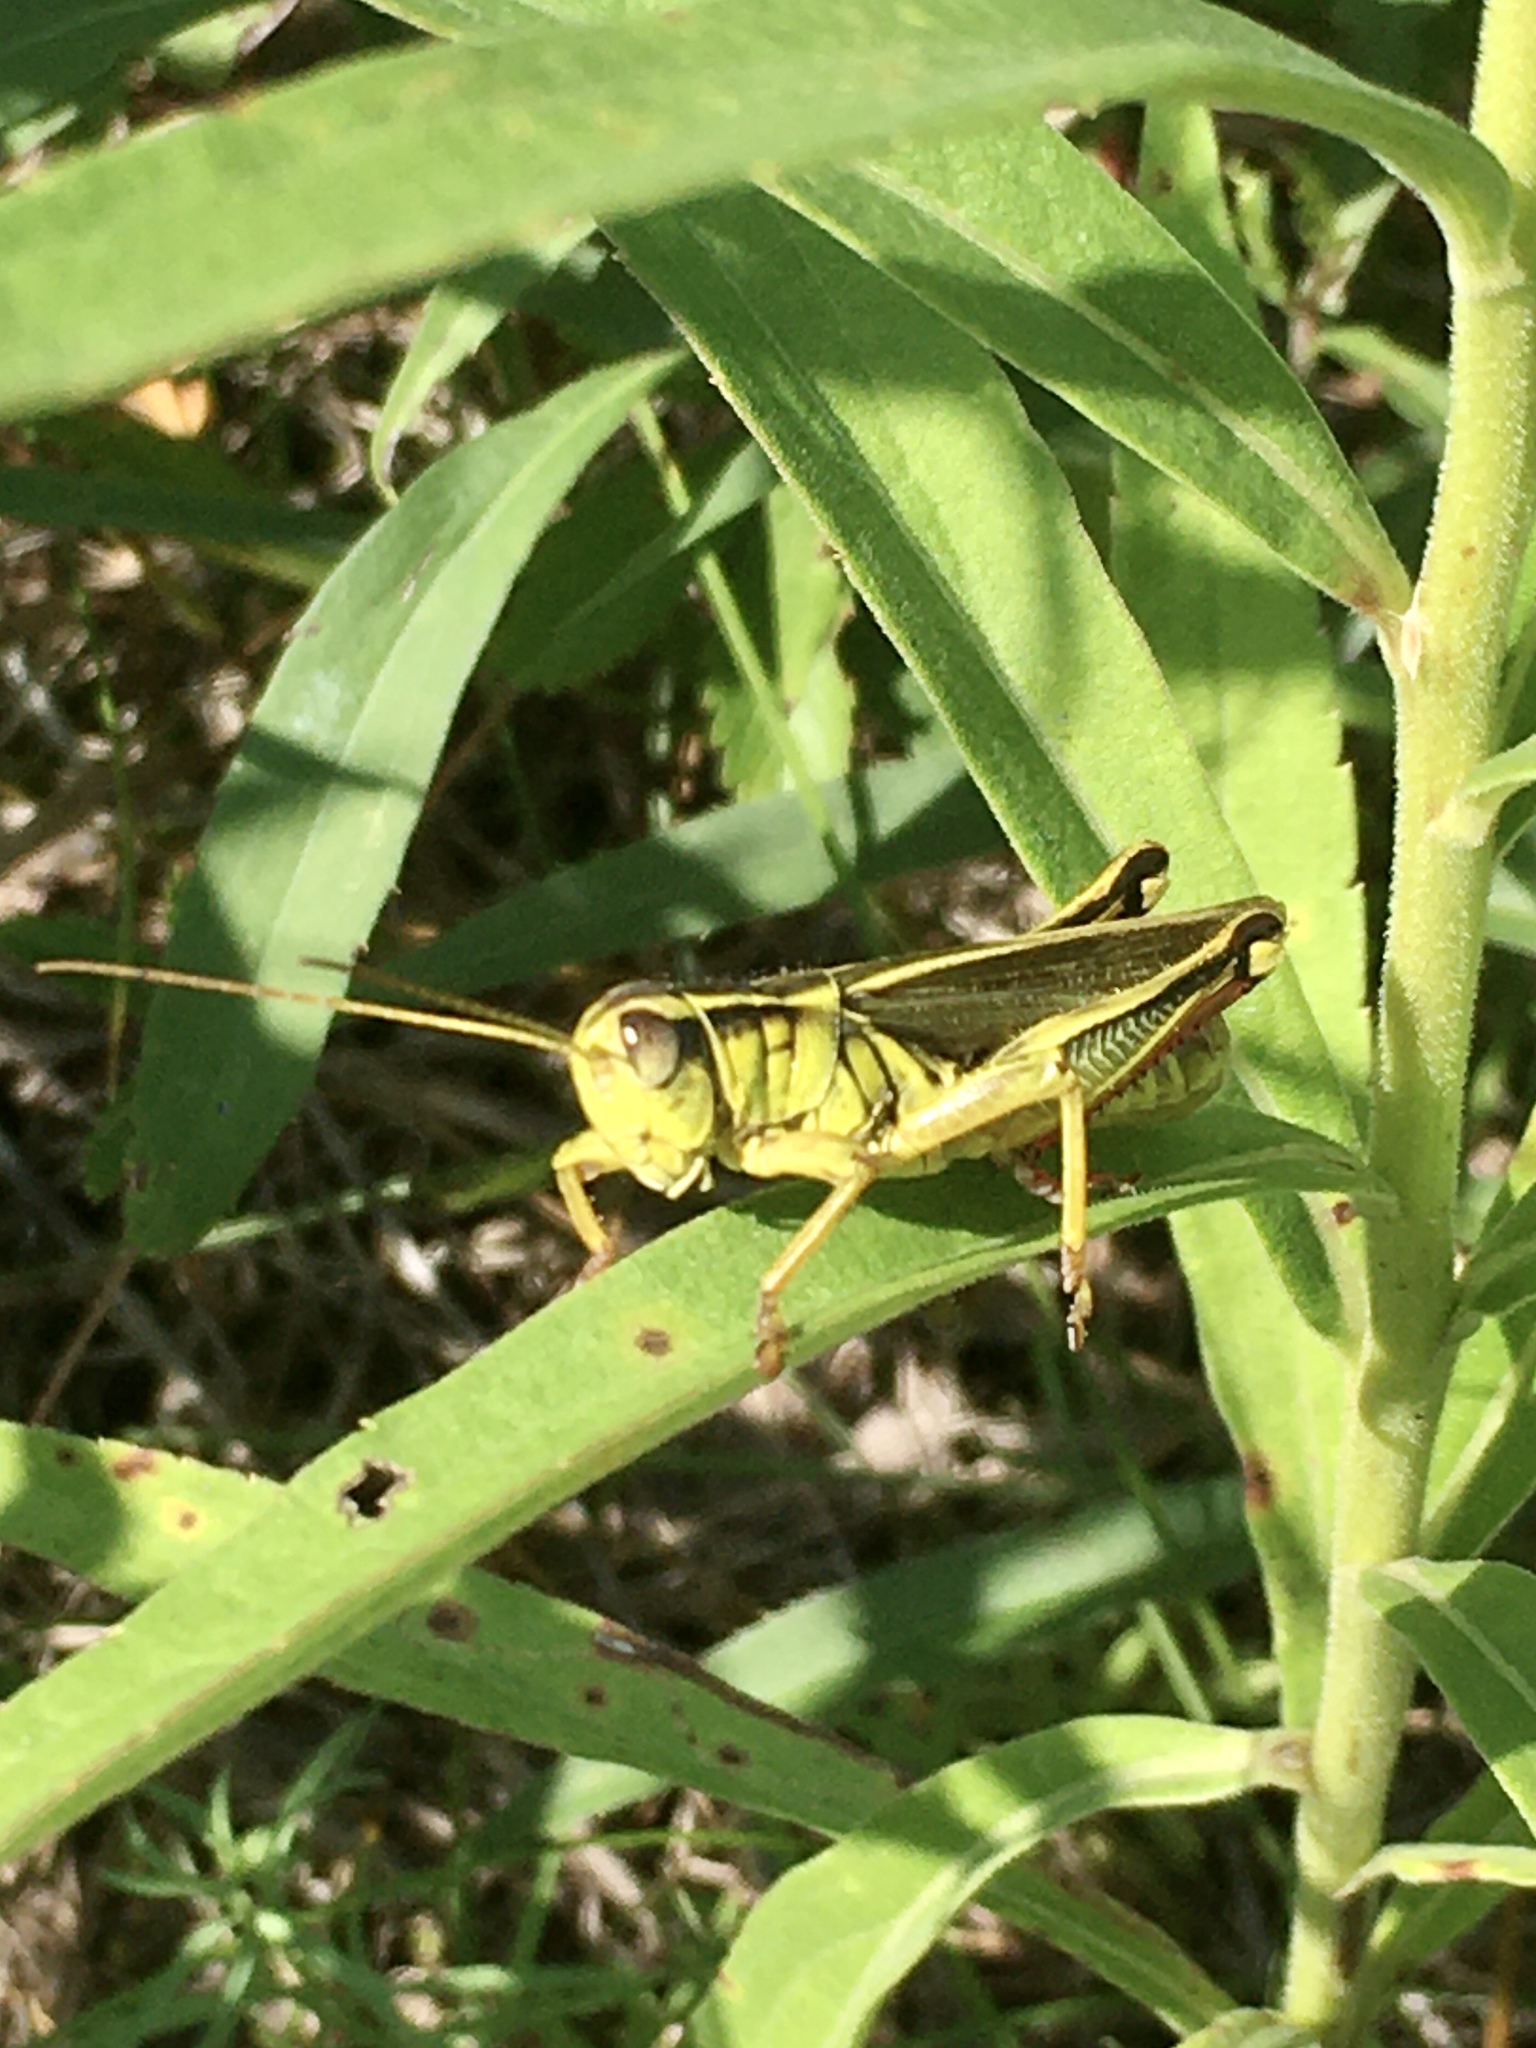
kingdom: Animalia
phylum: Arthropoda
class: Insecta
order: Orthoptera
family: Acrididae
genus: Melanoplus
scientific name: Melanoplus bivittatus
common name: Two-striped grasshopper
